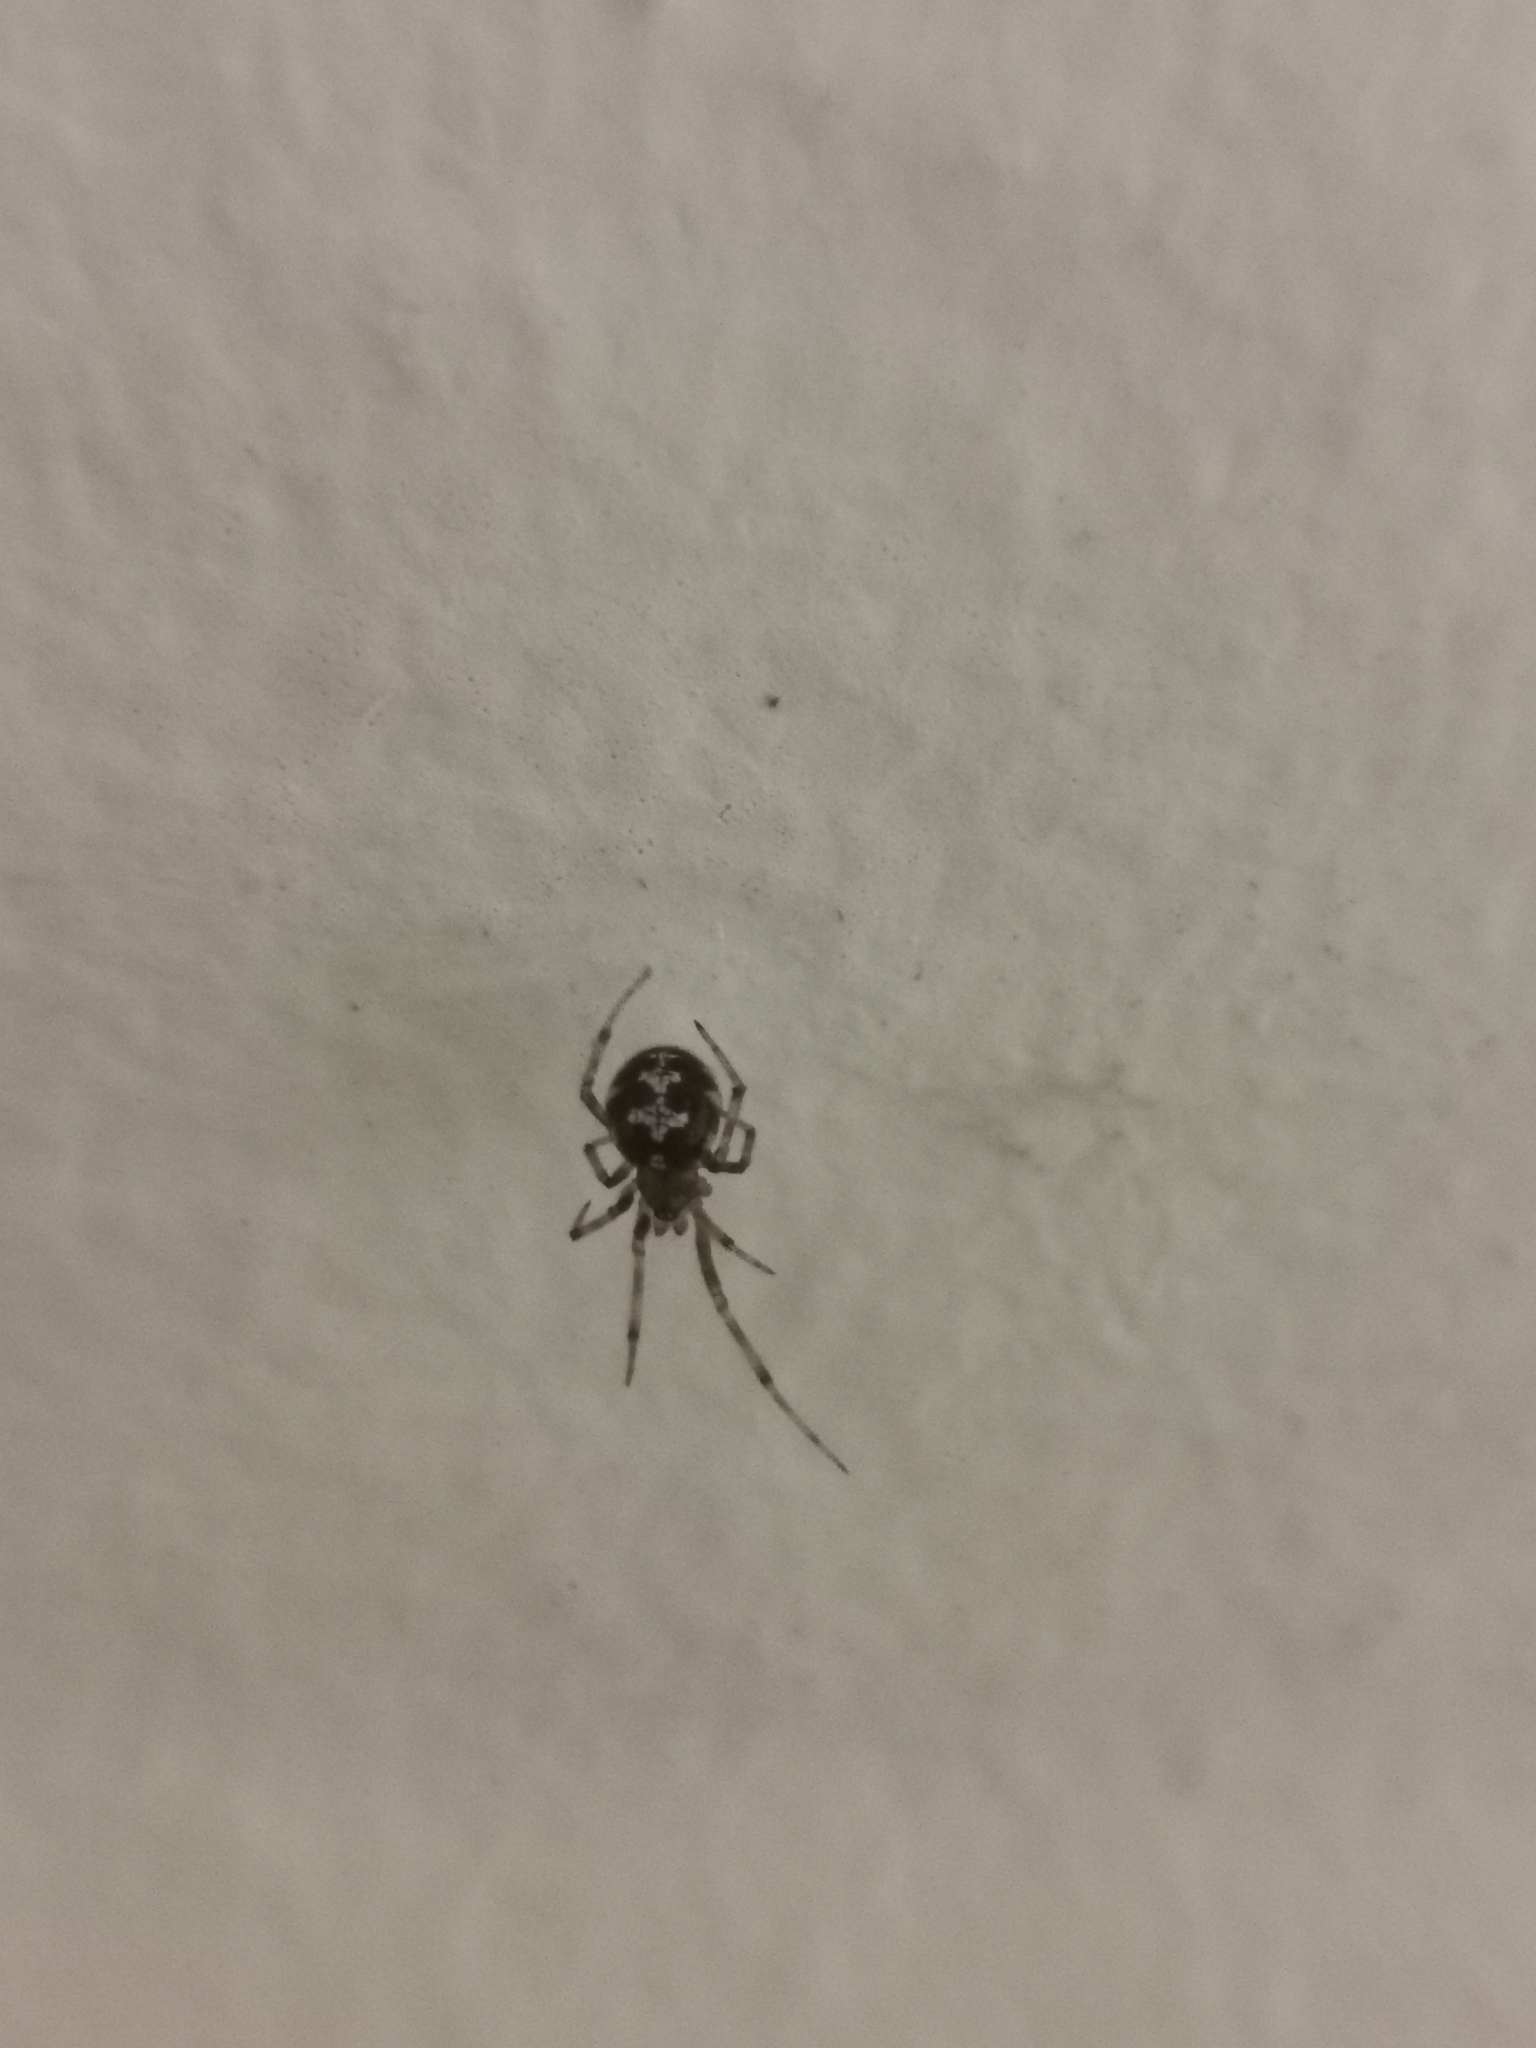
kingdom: Animalia
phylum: Arthropoda
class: Arachnida
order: Araneae
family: Theridiidae
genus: Steatoda
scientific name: Steatoda triangulosa
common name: Triangulate bud spider
